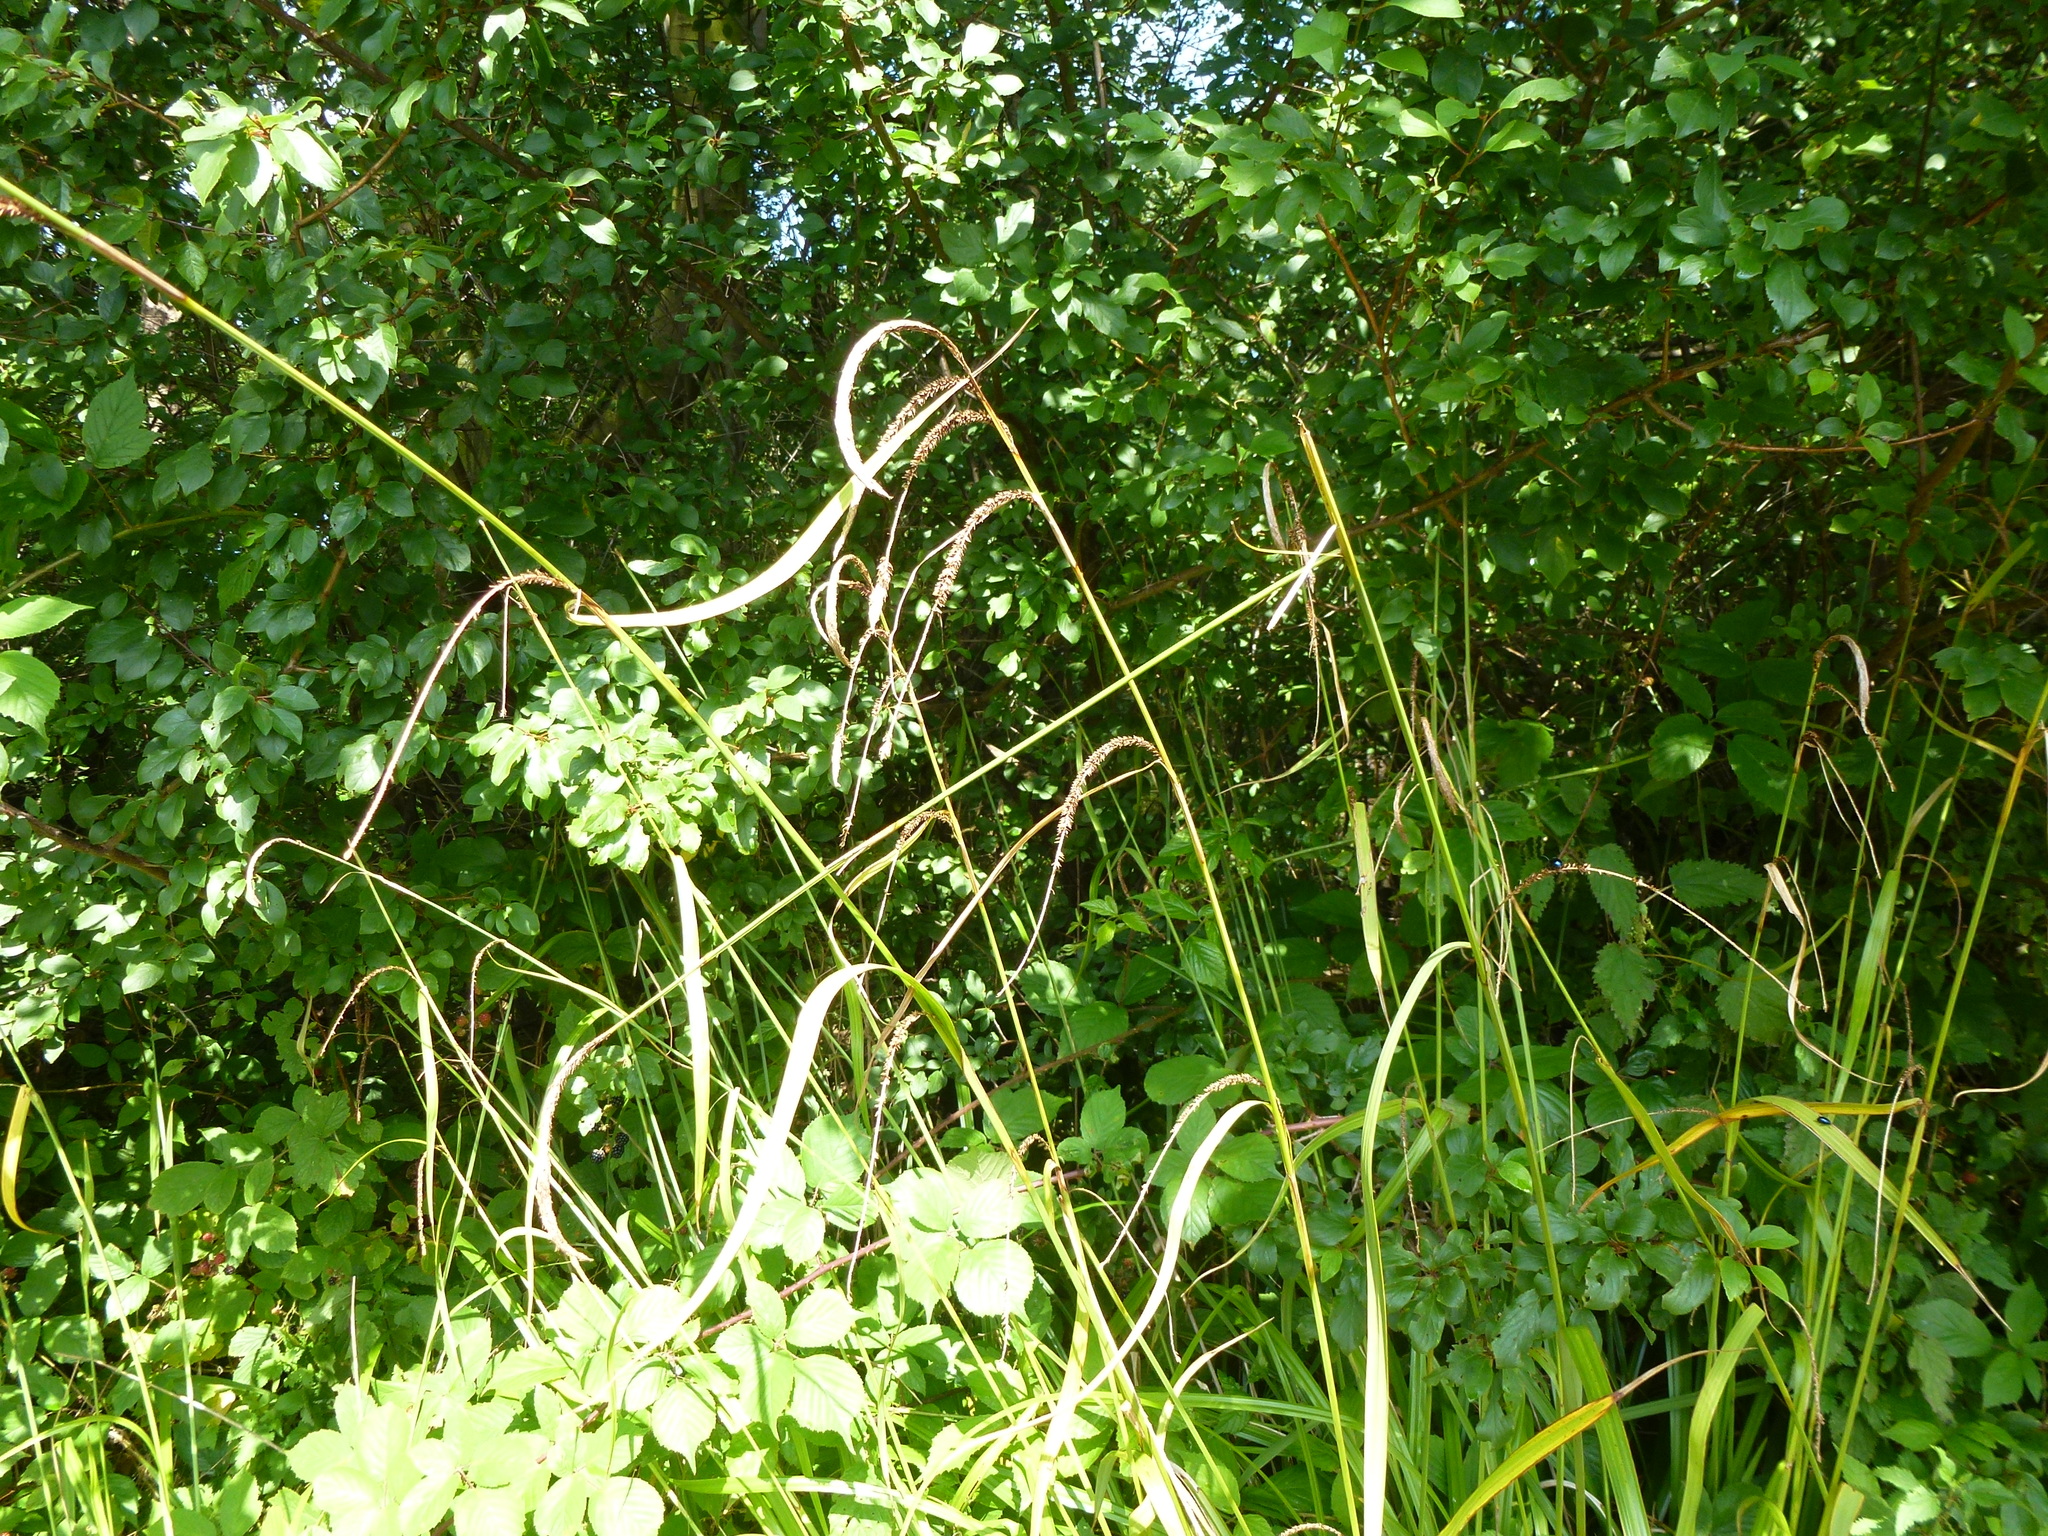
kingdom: Plantae
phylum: Tracheophyta
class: Liliopsida
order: Poales
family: Cyperaceae
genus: Carex
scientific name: Carex pendula
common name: Pendulous sedge
